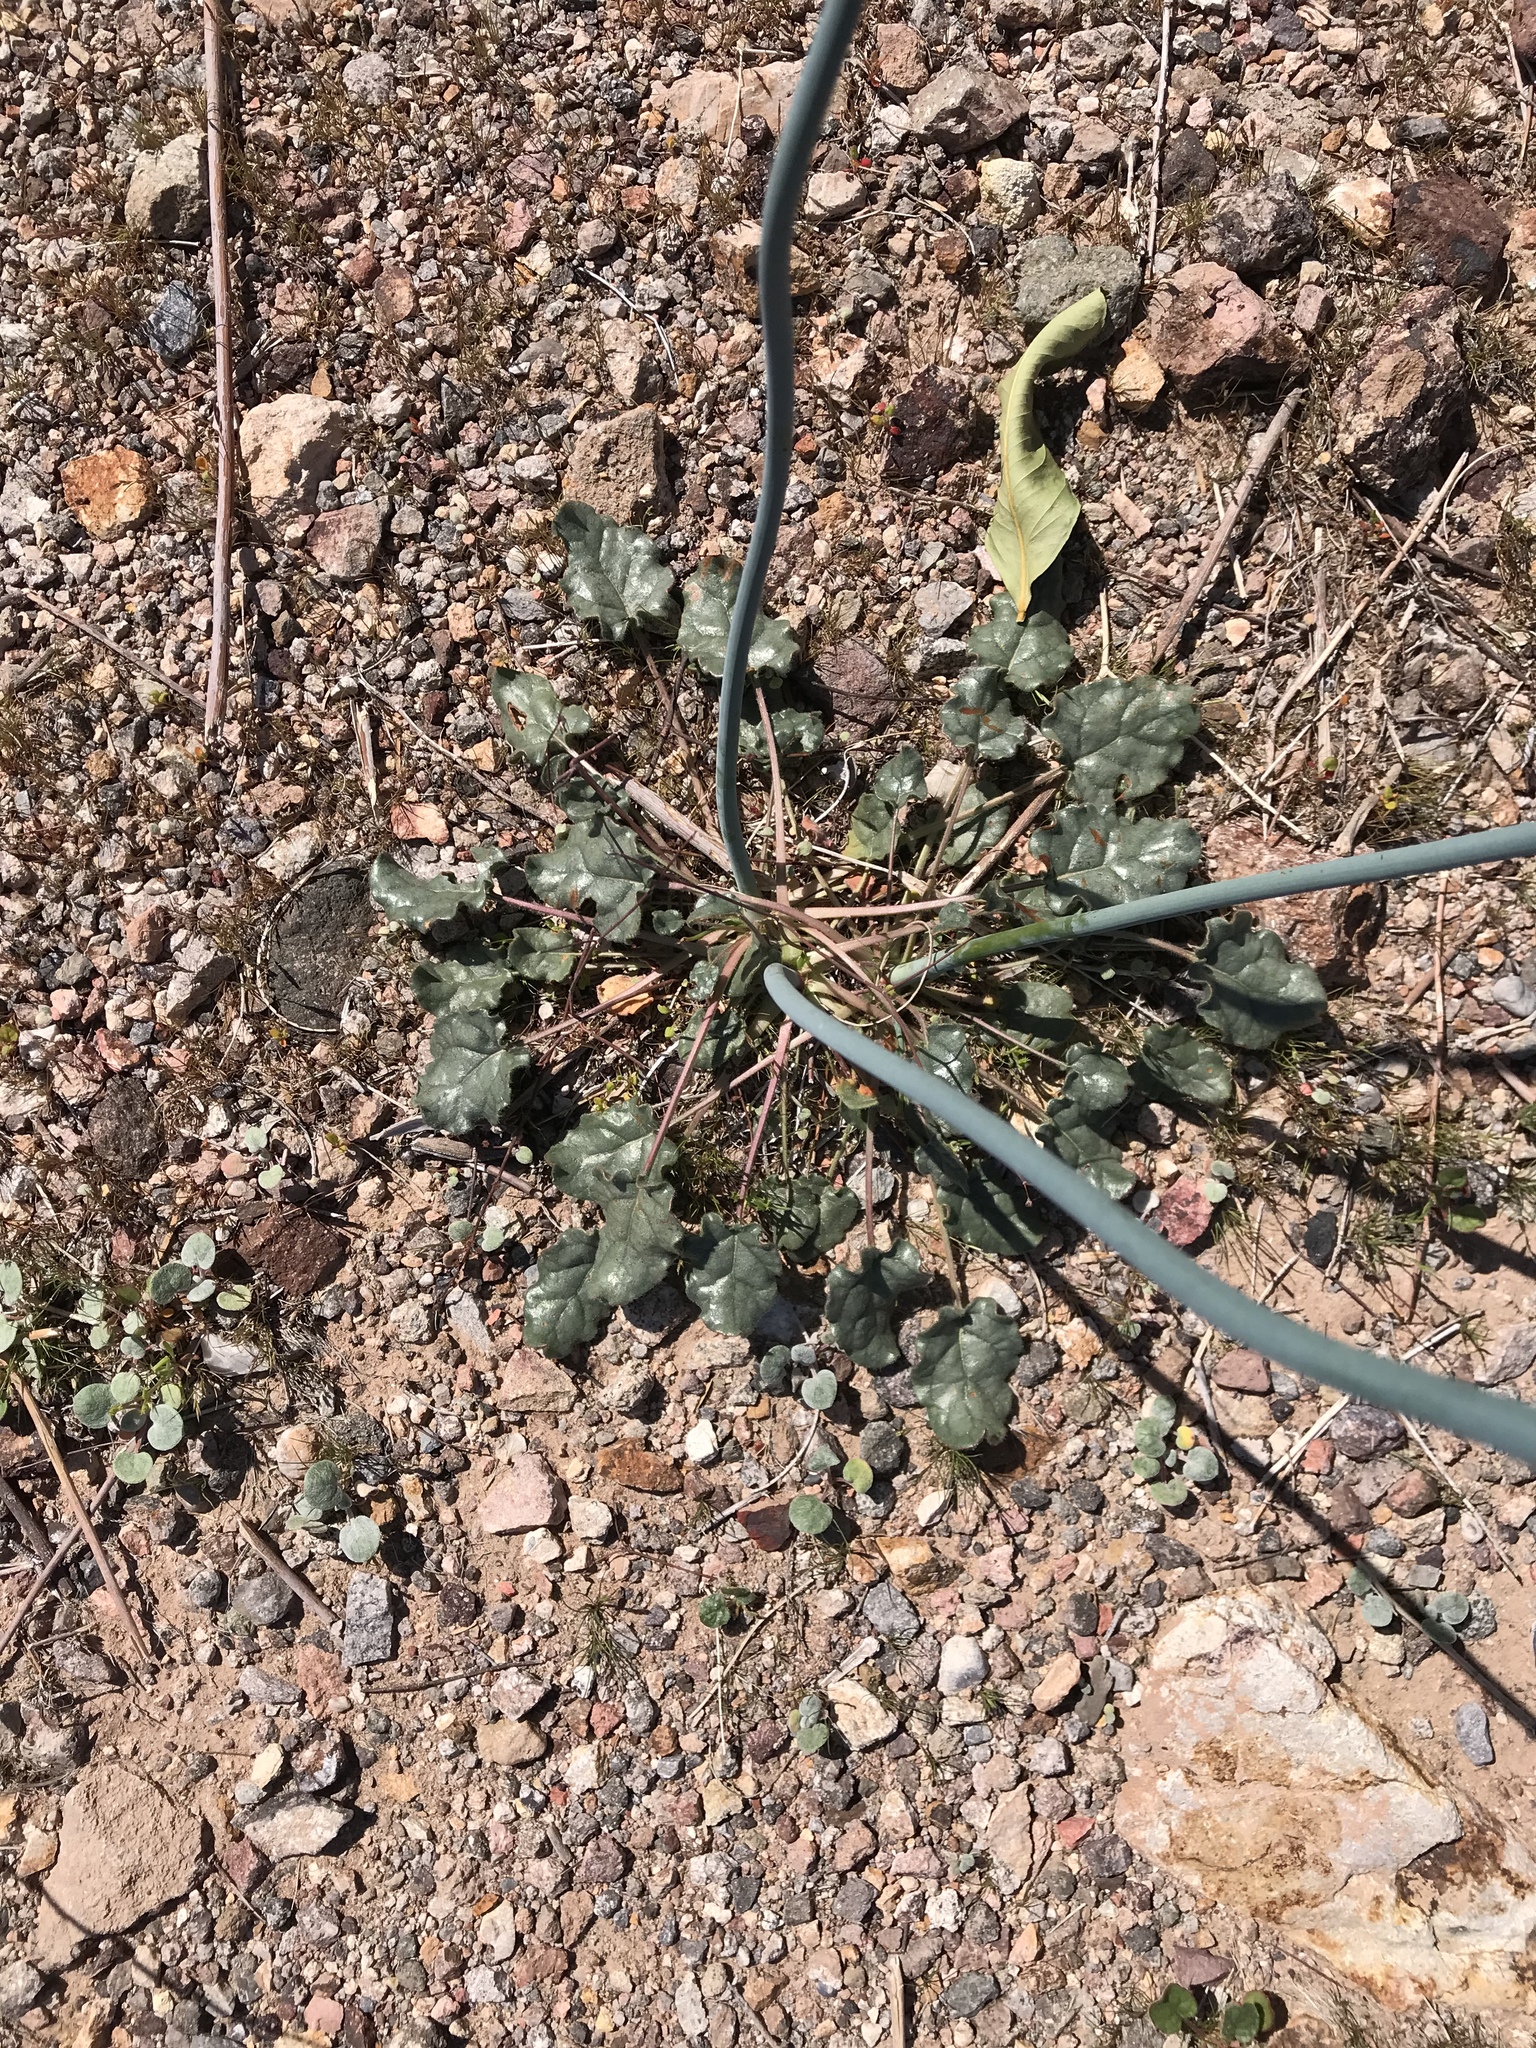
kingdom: Plantae
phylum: Tracheophyta
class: Magnoliopsida
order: Caryophyllales
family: Polygonaceae
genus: Eriogonum
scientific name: Eriogonum inflatum
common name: Desert trumpet
